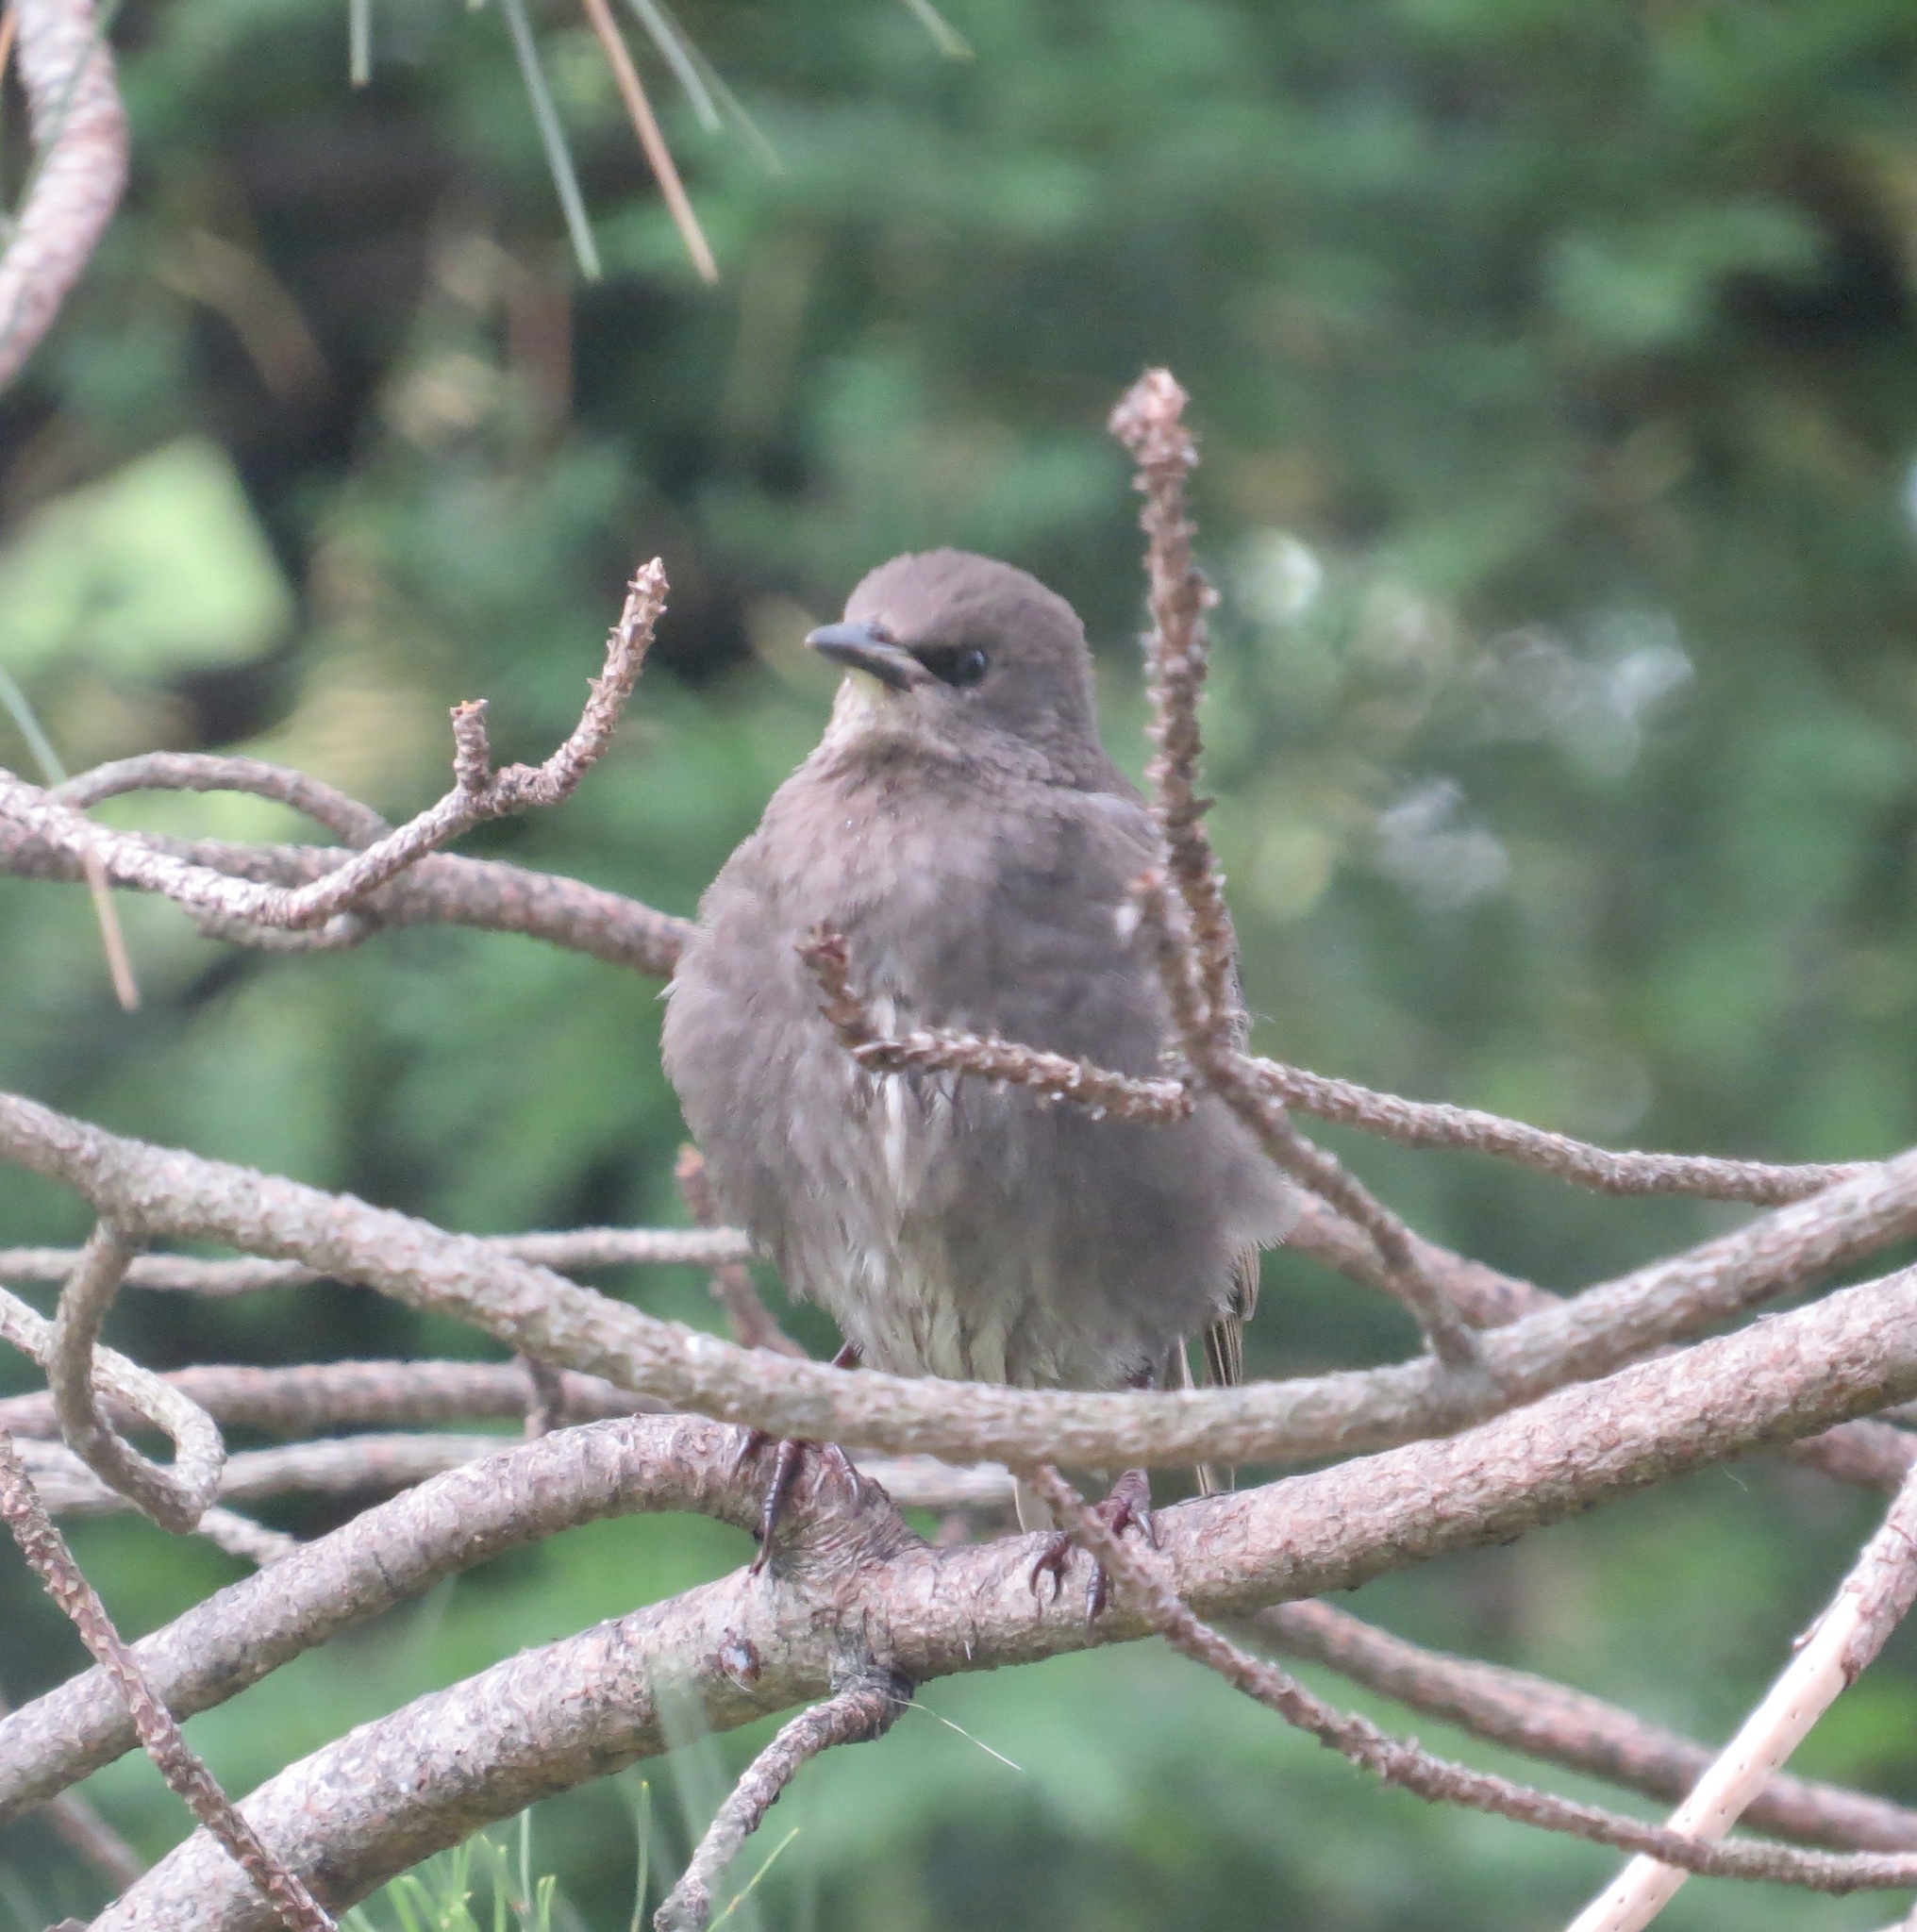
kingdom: Animalia
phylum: Chordata
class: Aves
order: Passeriformes
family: Sturnidae
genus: Sturnus
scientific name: Sturnus vulgaris
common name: Common starling
